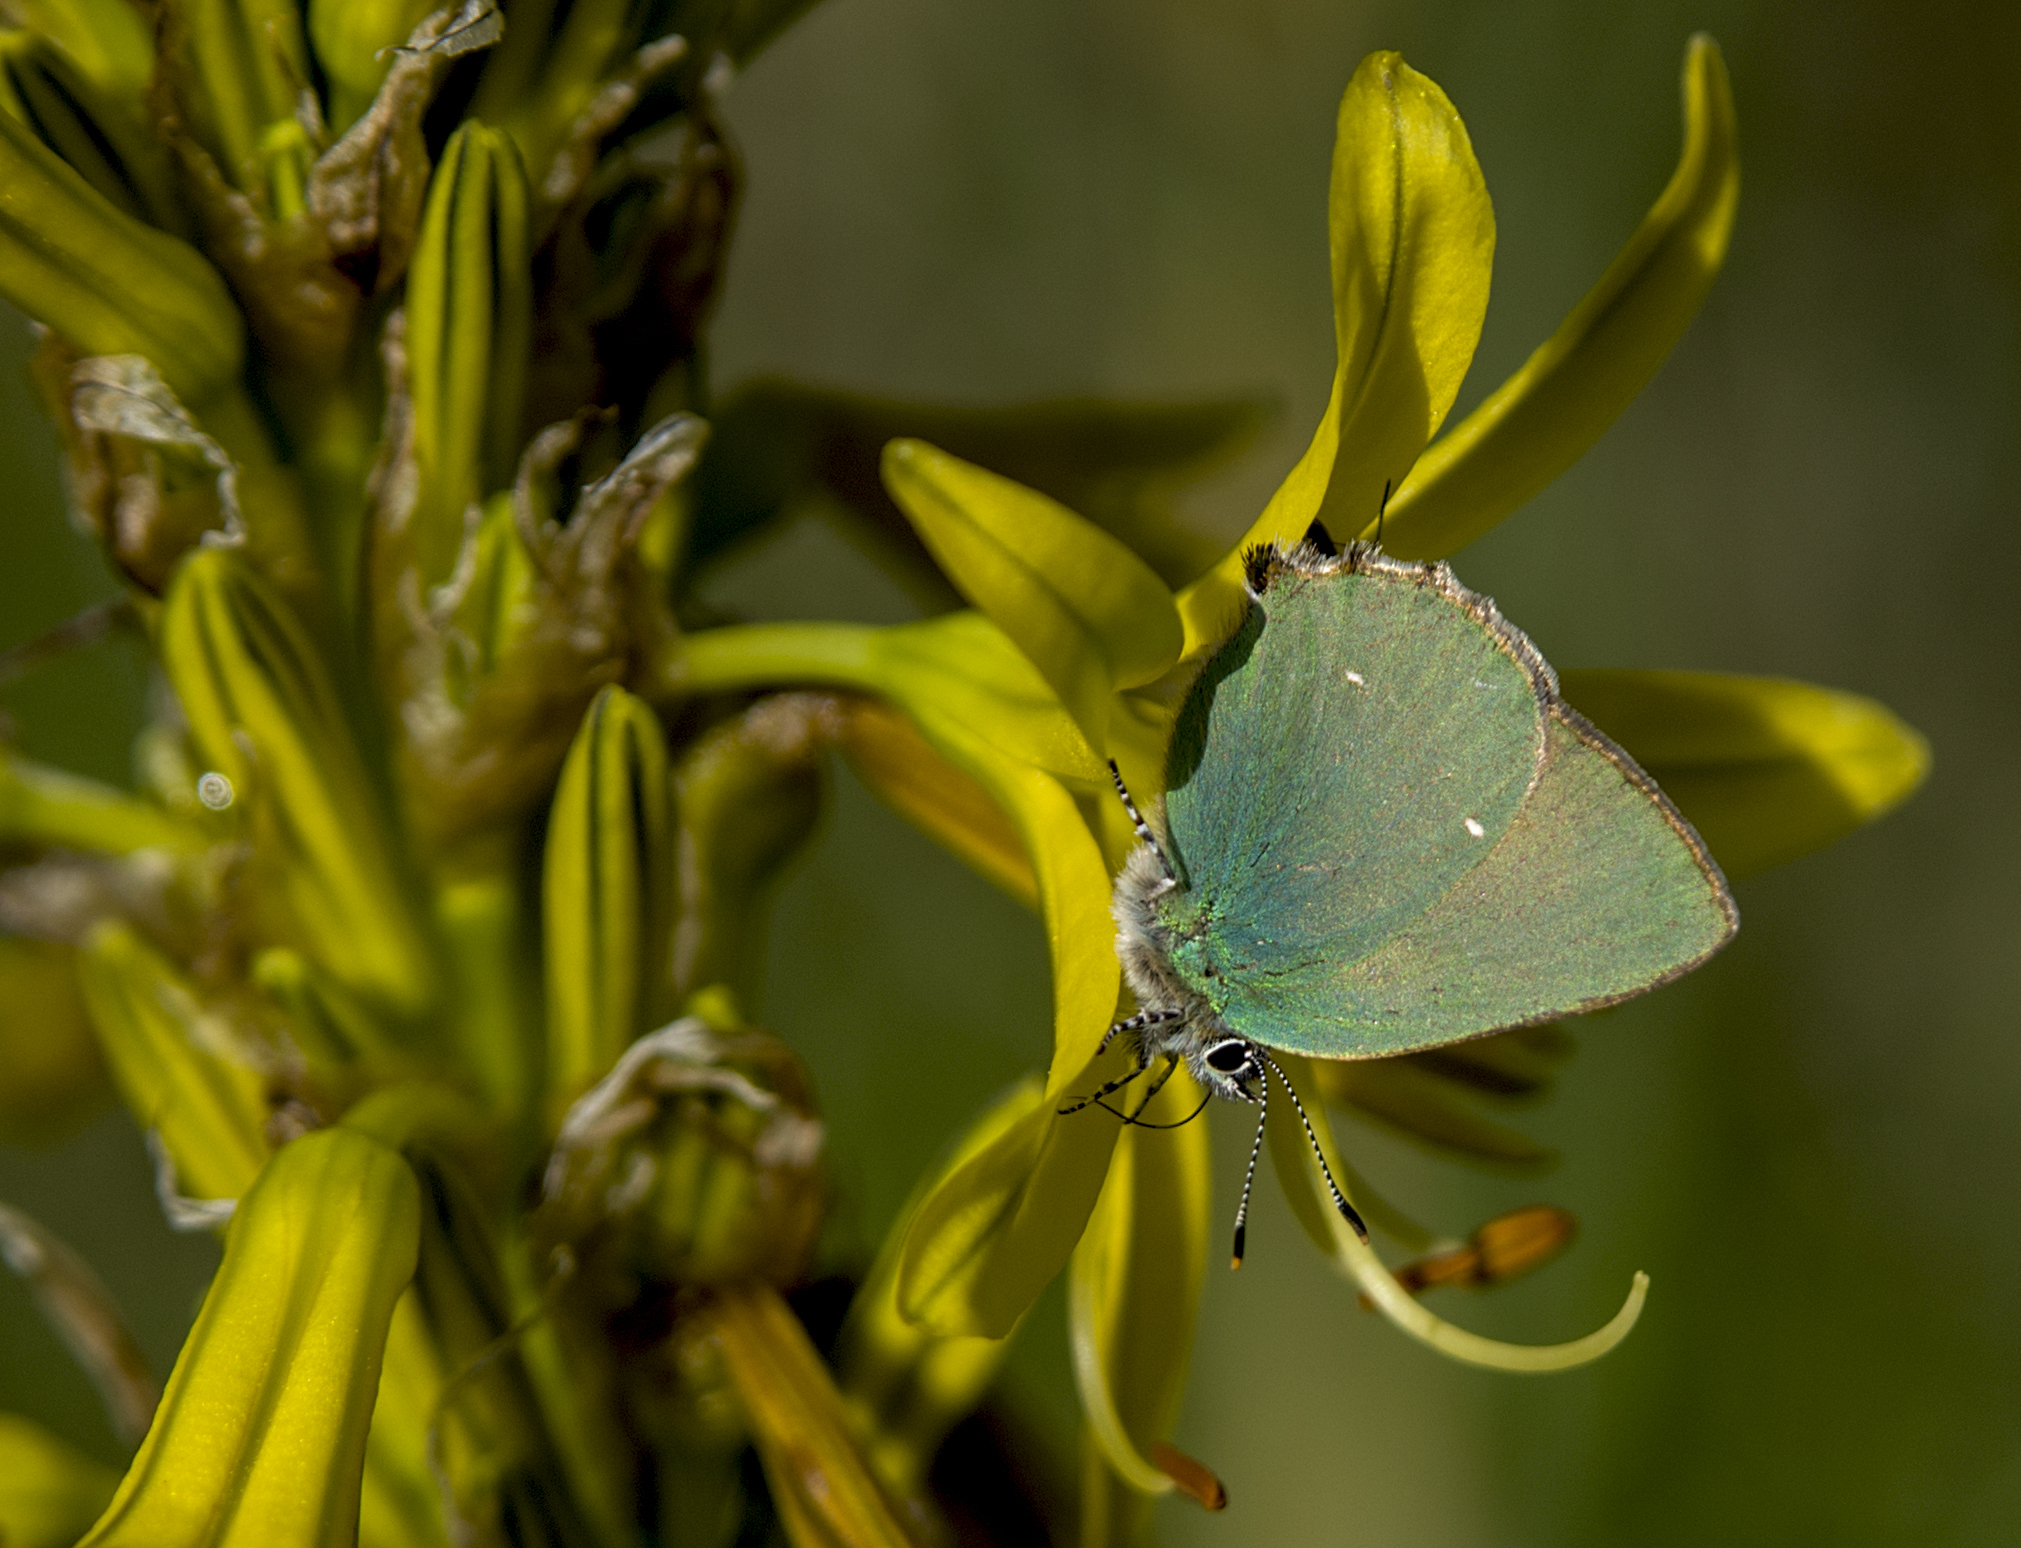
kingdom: Animalia
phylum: Arthropoda
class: Insecta
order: Lepidoptera
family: Lycaenidae
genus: Callophrys
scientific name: Callophrys rubi
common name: Green hairstreak
